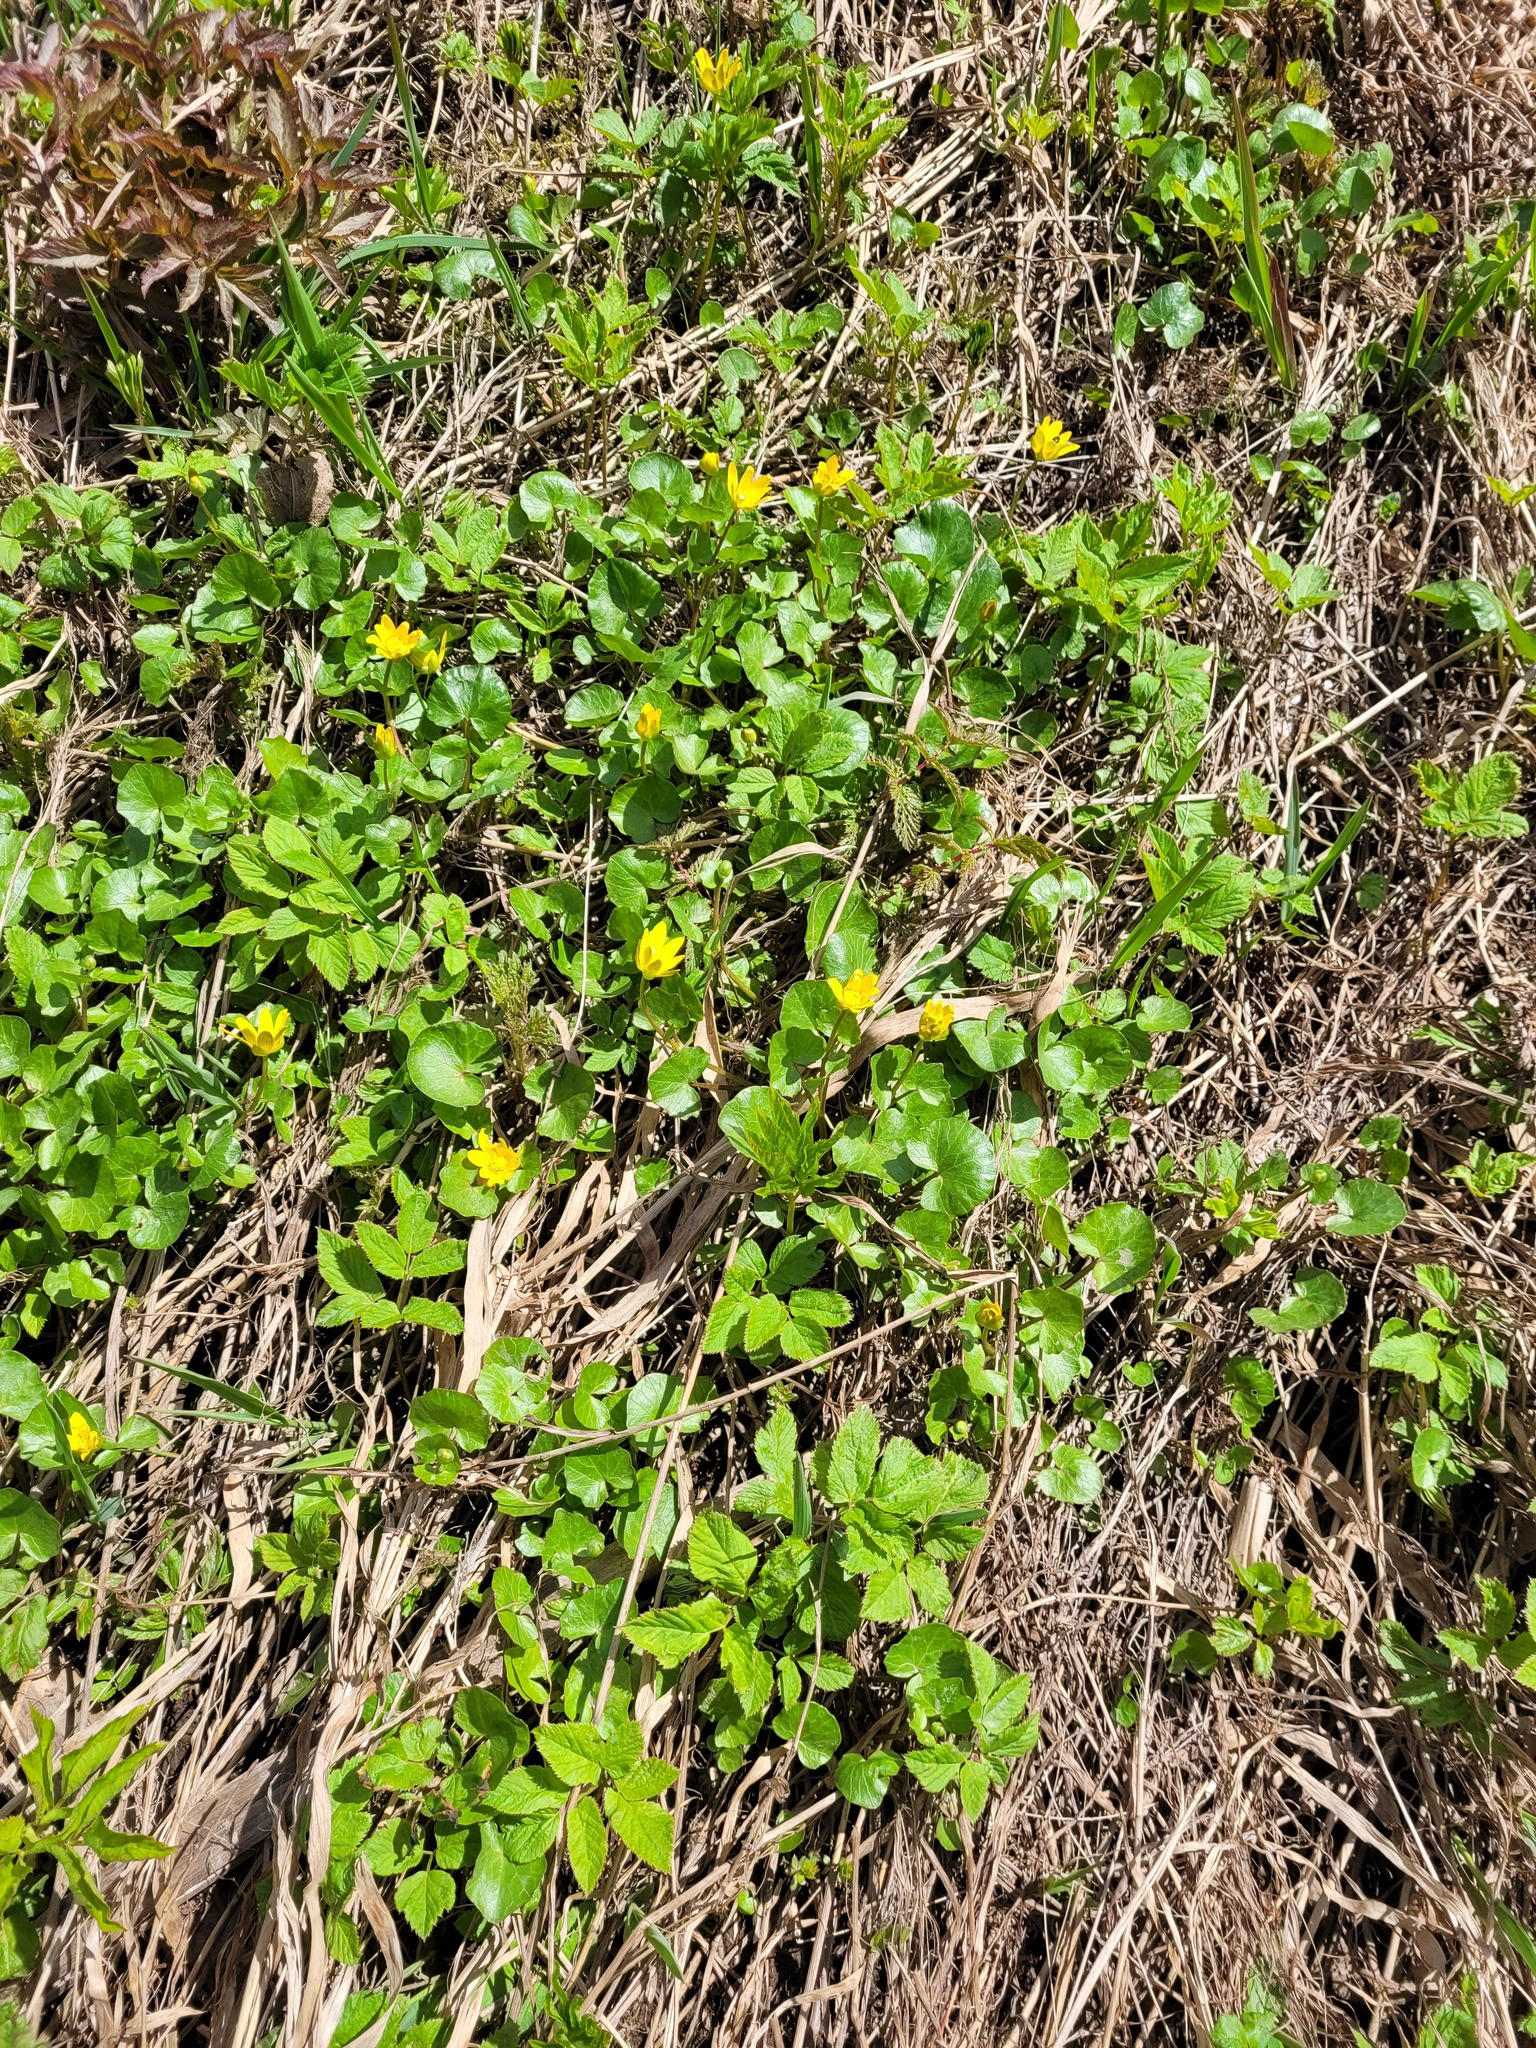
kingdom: Plantae
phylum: Tracheophyta
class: Magnoliopsida
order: Ranunculales
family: Ranunculaceae
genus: Ficaria
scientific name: Ficaria verna
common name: Lesser celandine
